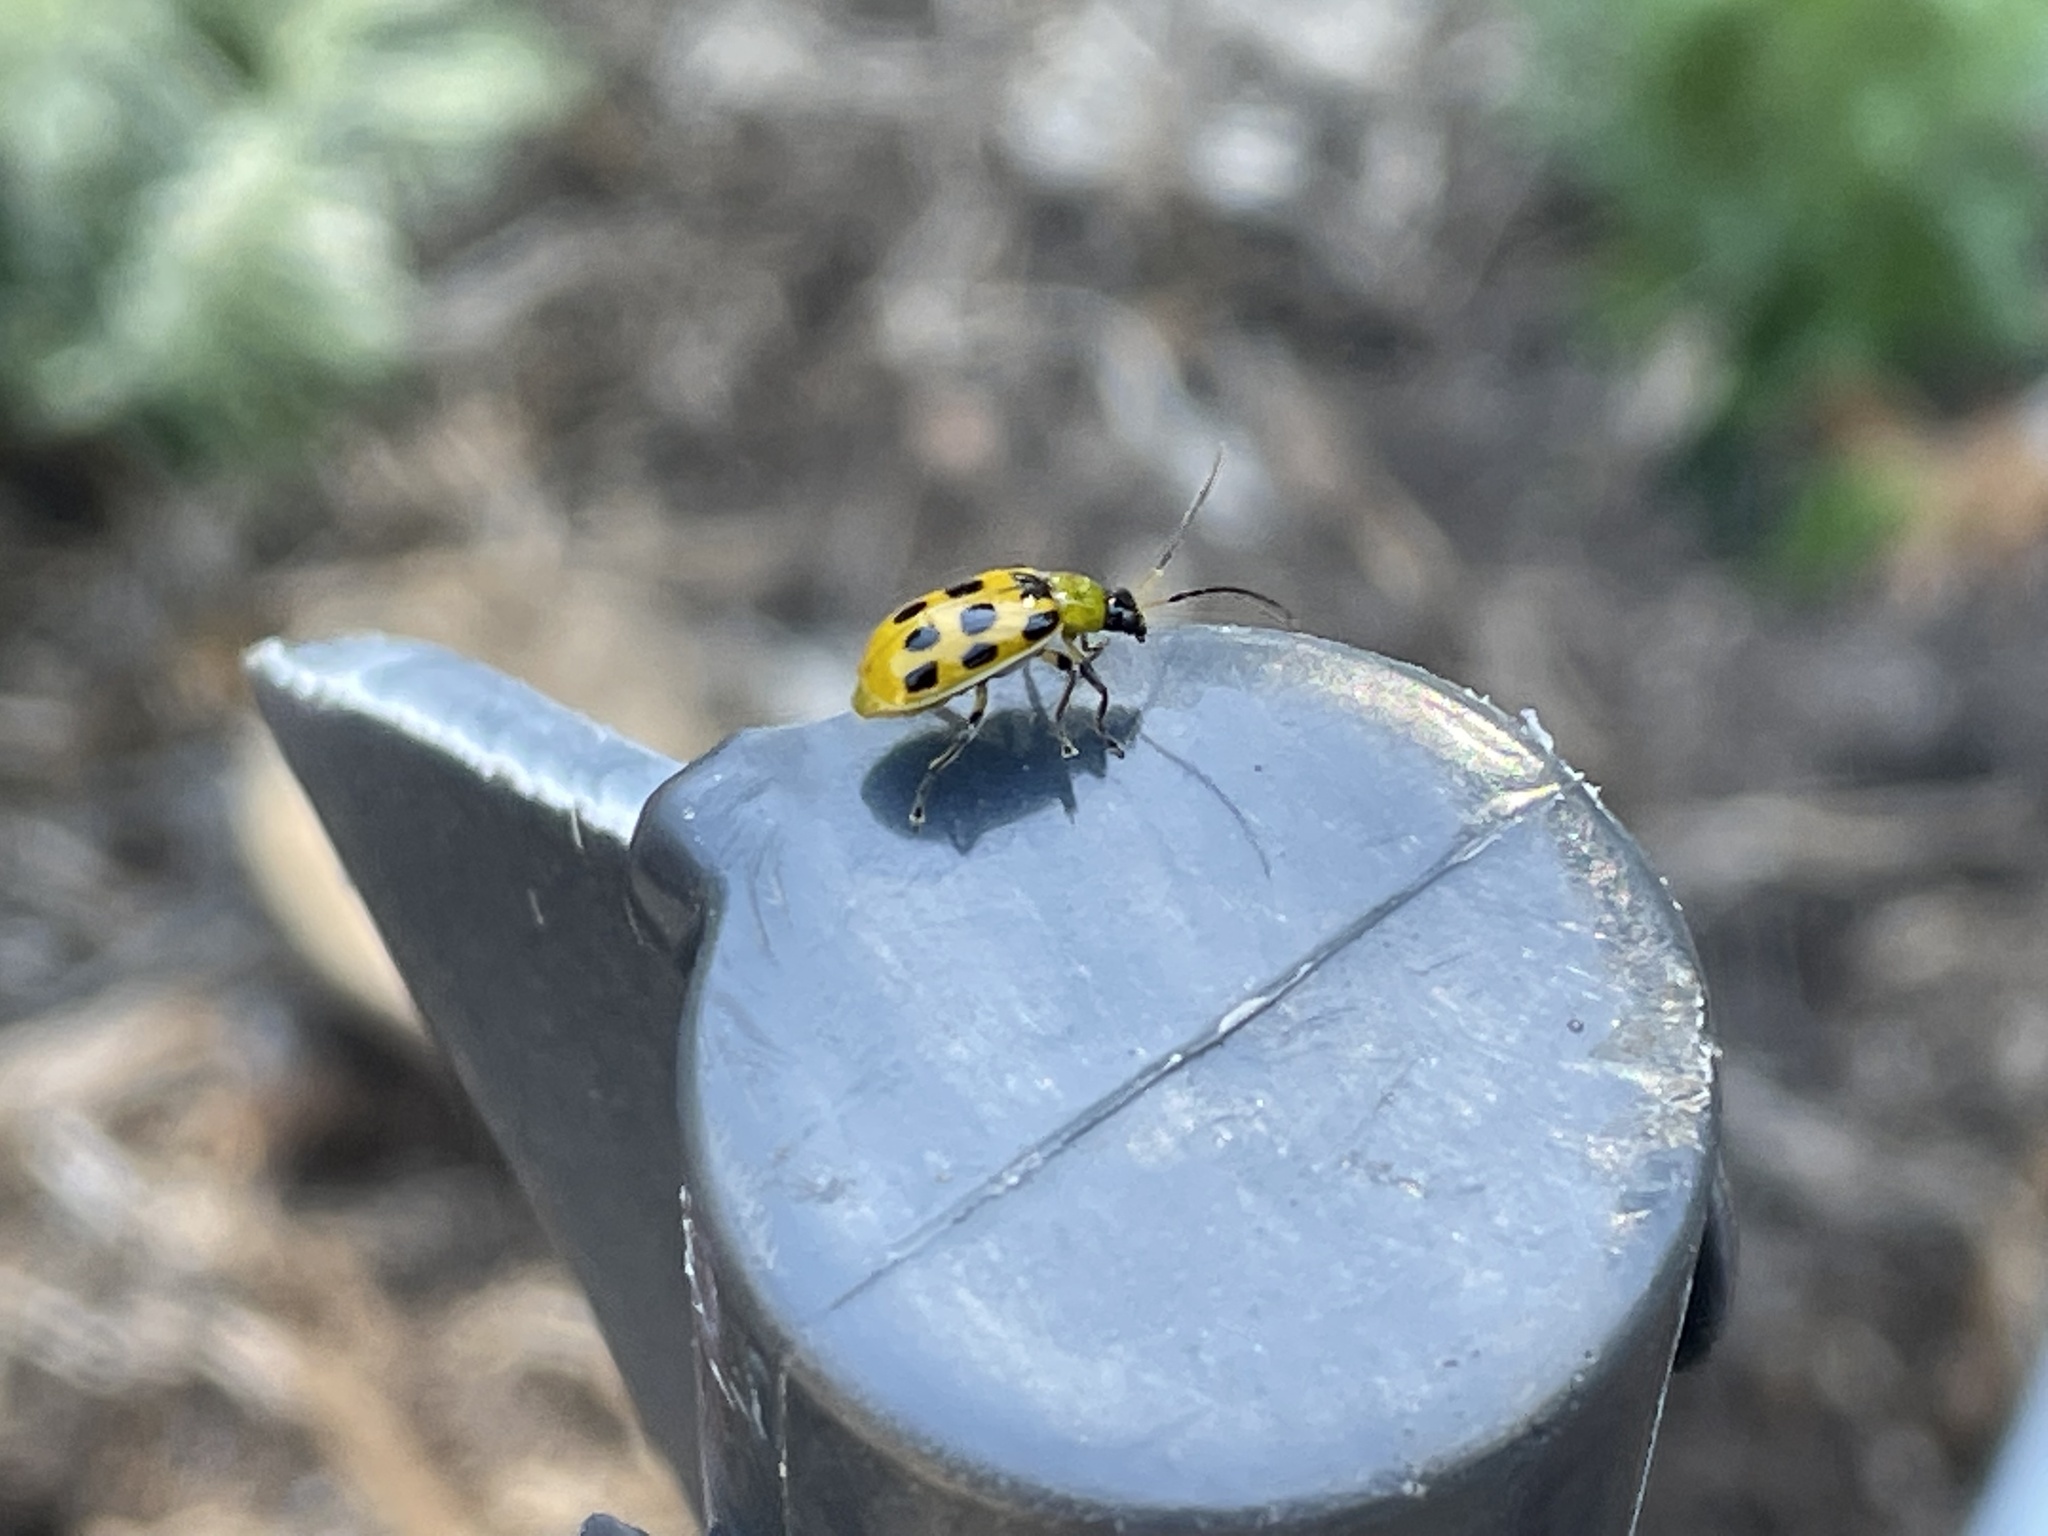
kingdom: Animalia
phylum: Arthropoda
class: Insecta
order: Coleoptera
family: Chrysomelidae
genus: Diabrotica
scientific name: Diabrotica undecimpunctata
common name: Spotted cucumber beetle
